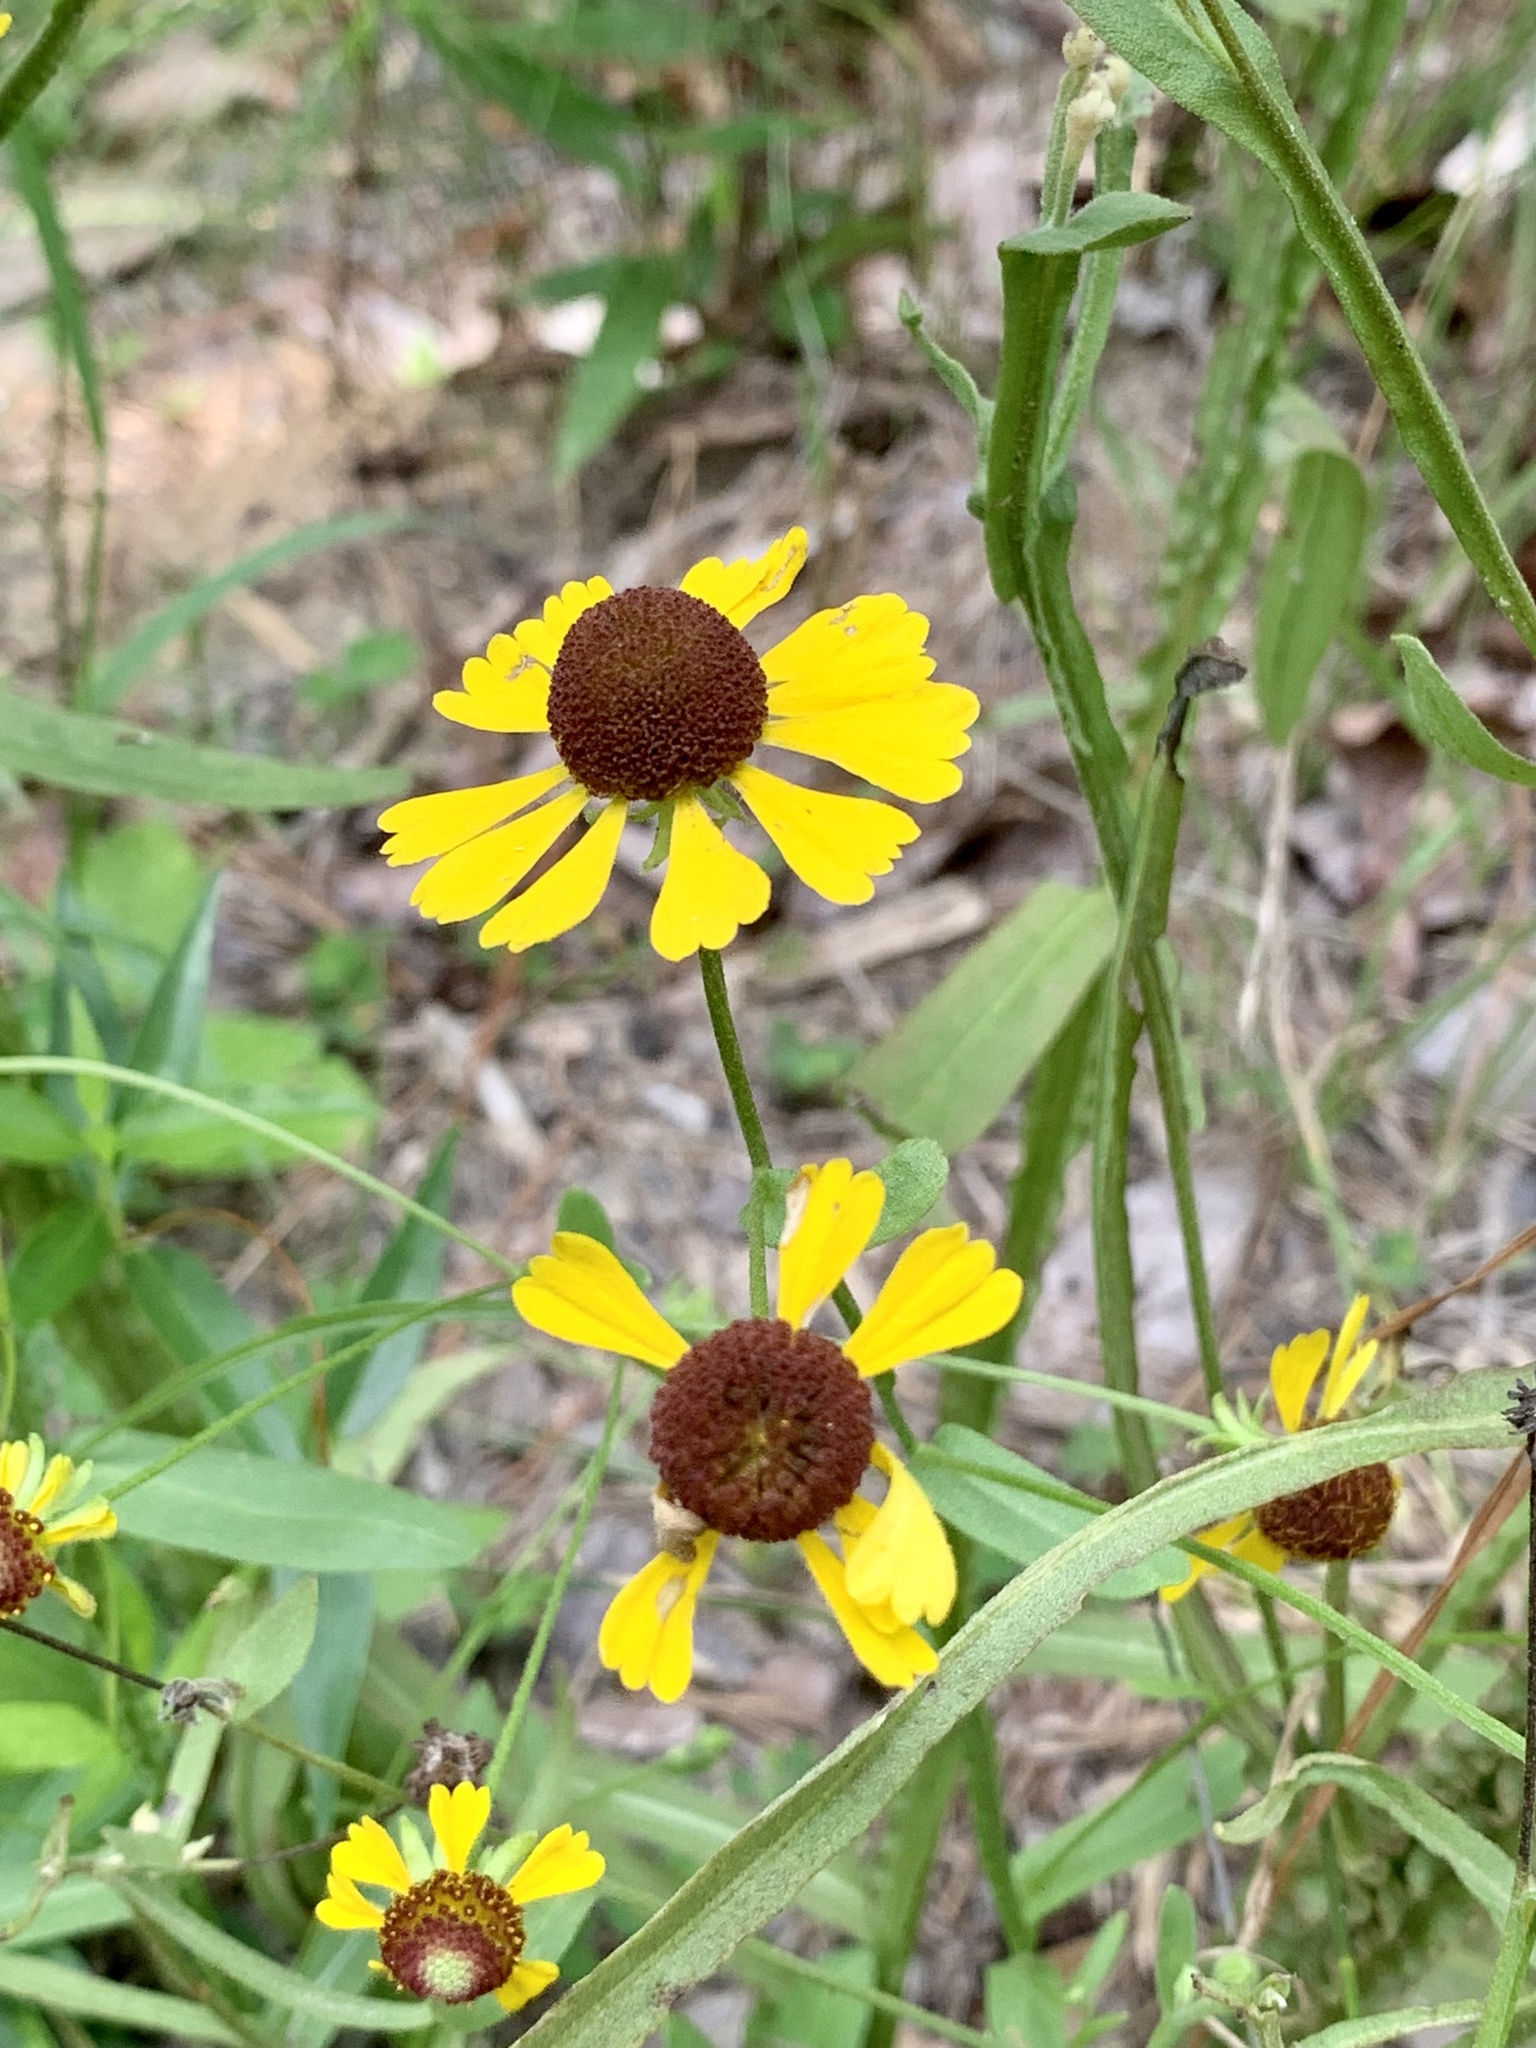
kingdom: Plantae
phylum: Tracheophyta
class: Magnoliopsida
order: Asterales
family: Asteraceae
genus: Helenium
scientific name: Helenium flexuosum
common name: Naked-flowered sneezeweed
